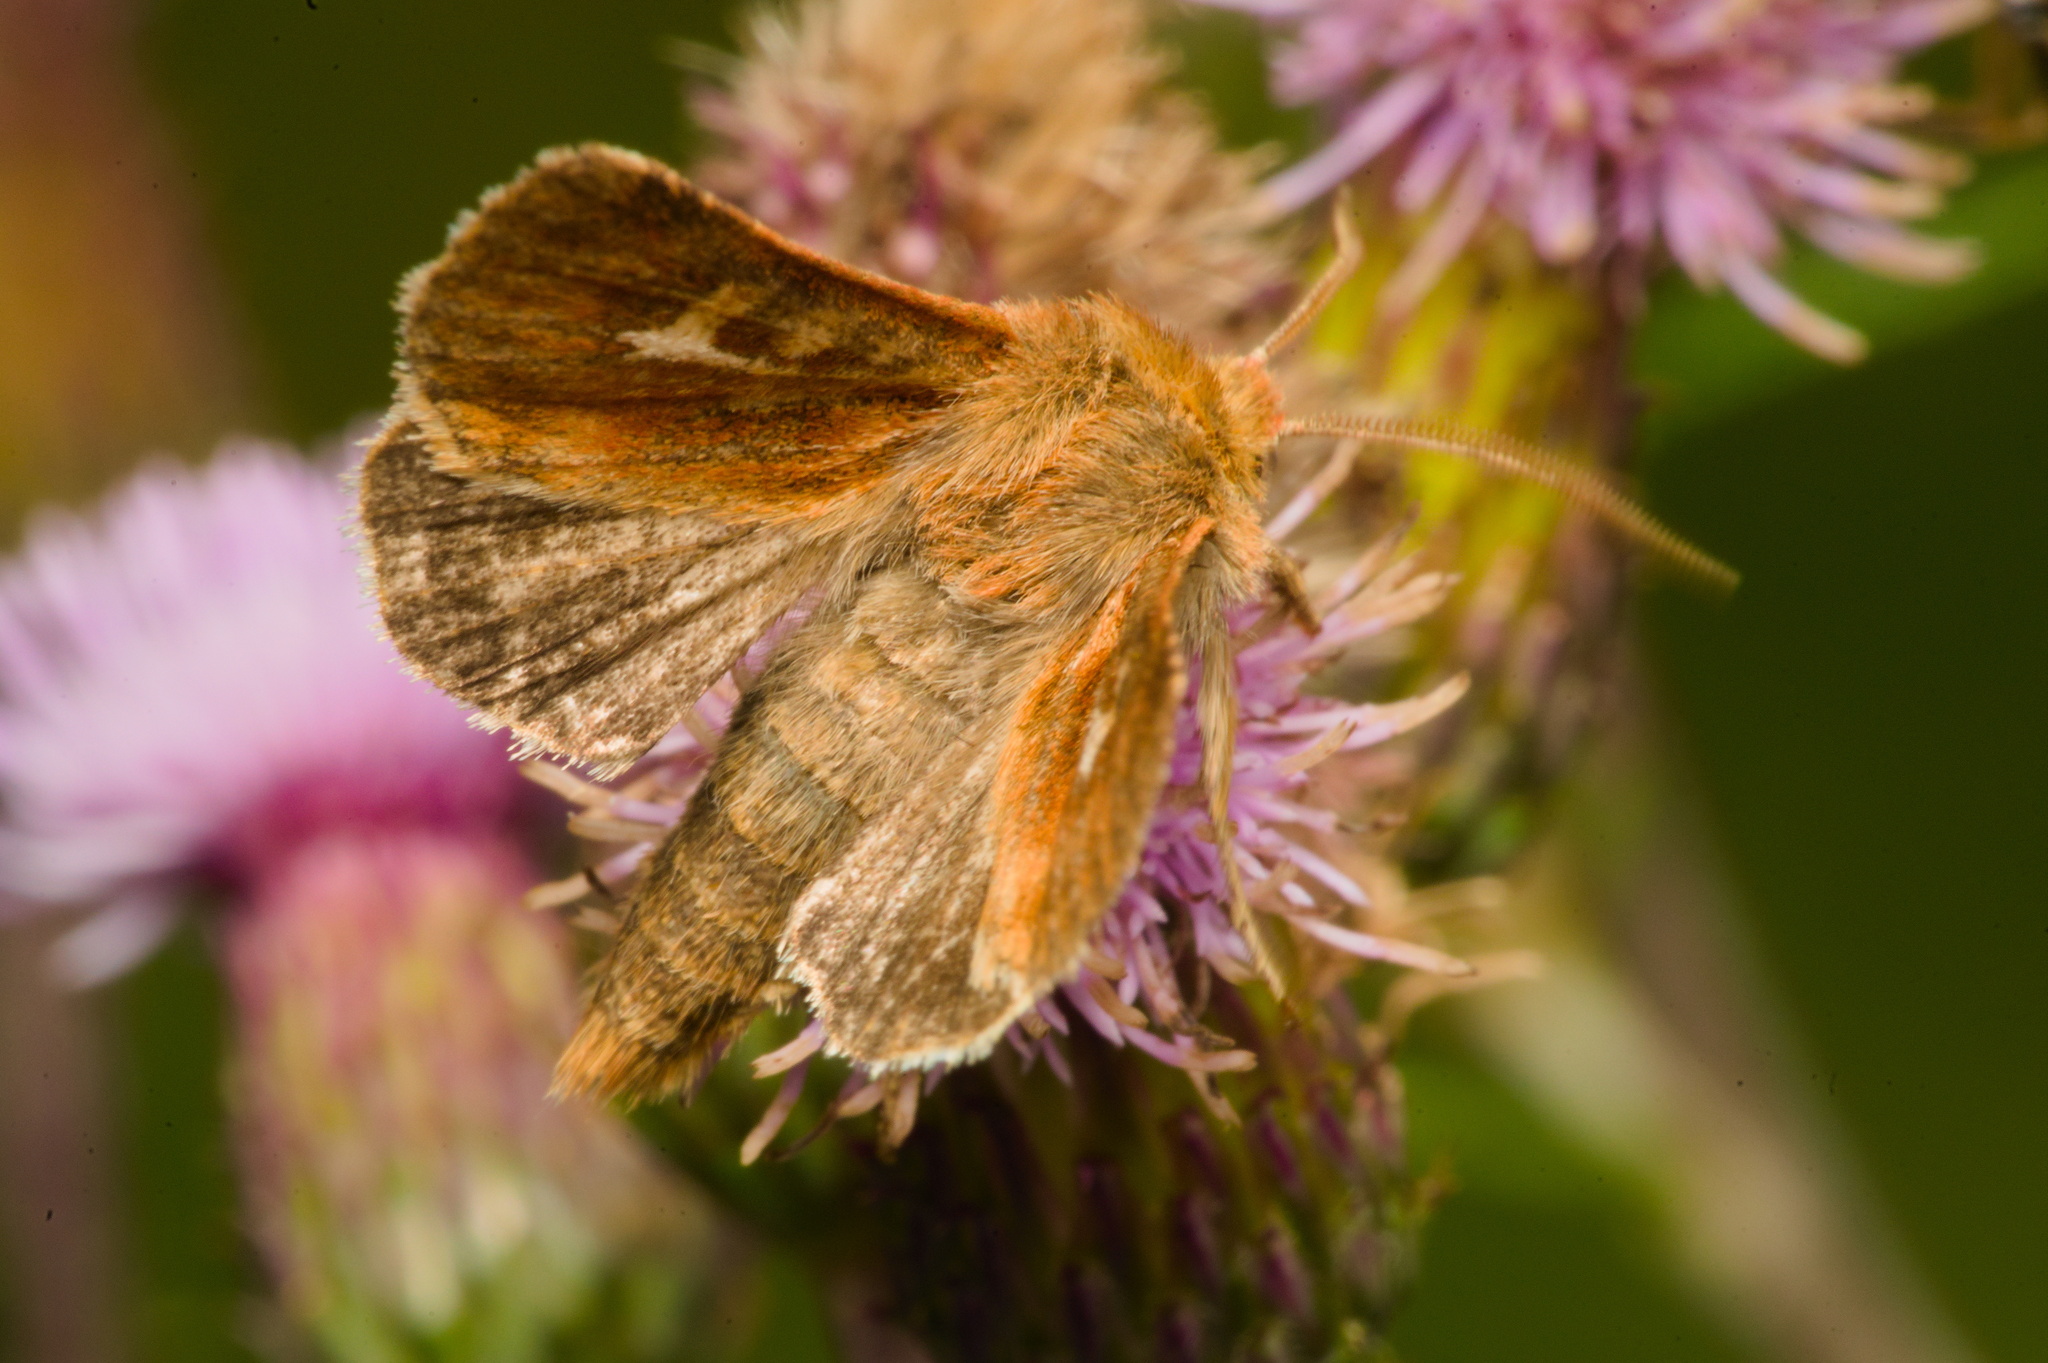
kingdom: Animalia
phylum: Arthropoda
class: Insecta
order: Lepidoptera
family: Noctuidae
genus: Cerapteryx
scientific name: Cerapteryx graminis
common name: Antler moth
